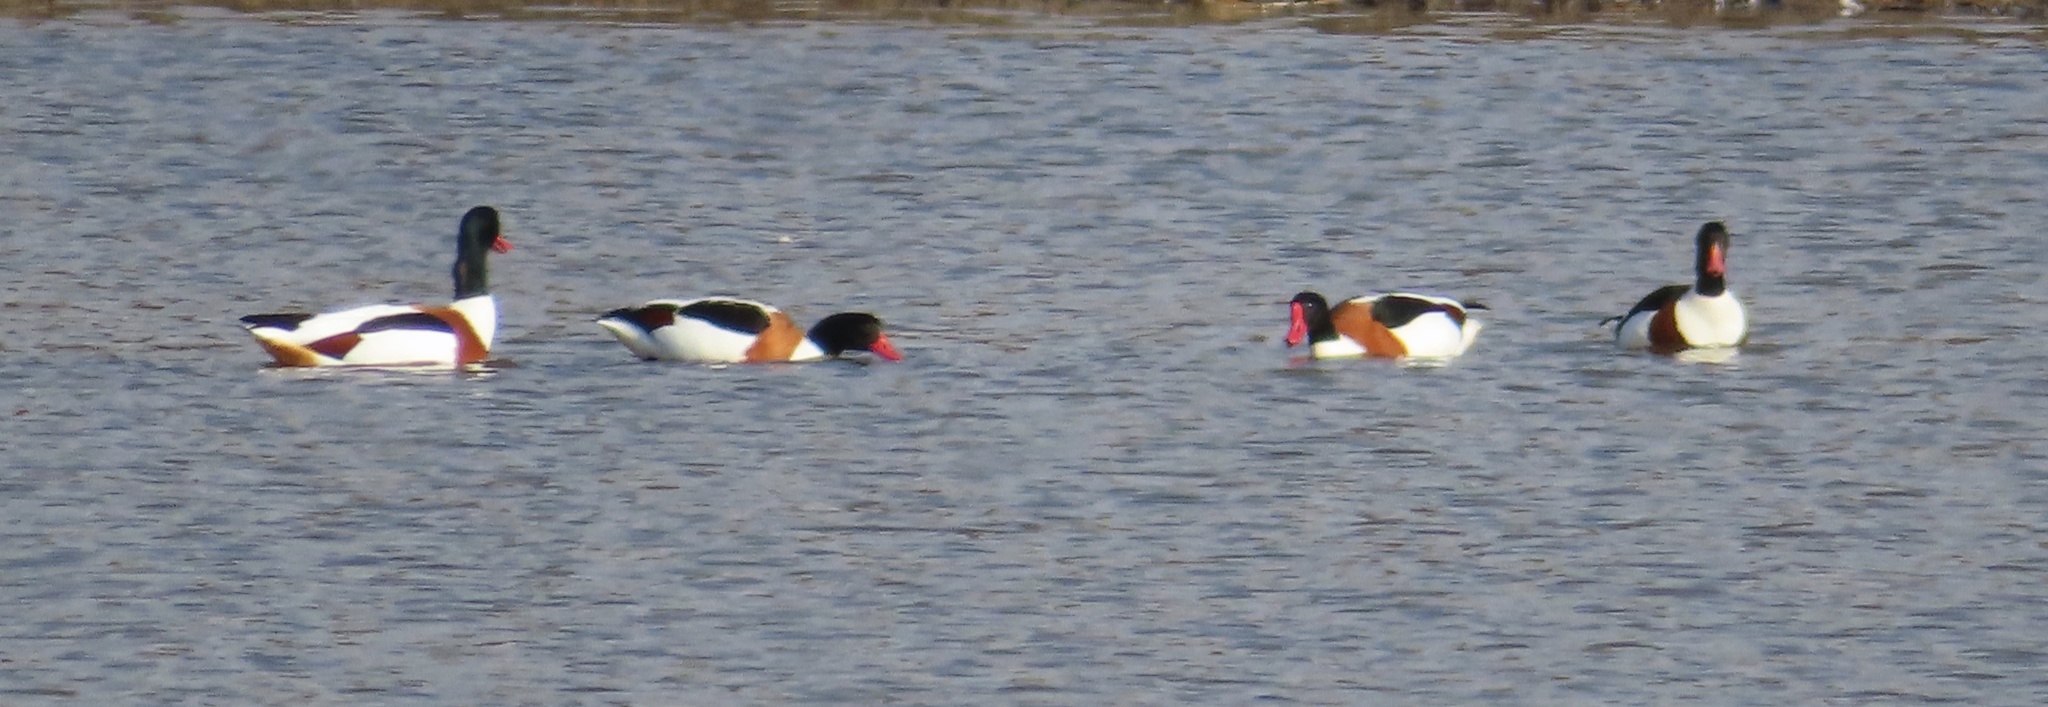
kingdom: Animalia
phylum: Chordata
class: Aves
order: Anseriformes
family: Anatidae
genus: Tadorna
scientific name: Tadorna tadorna
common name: Common shelduck
